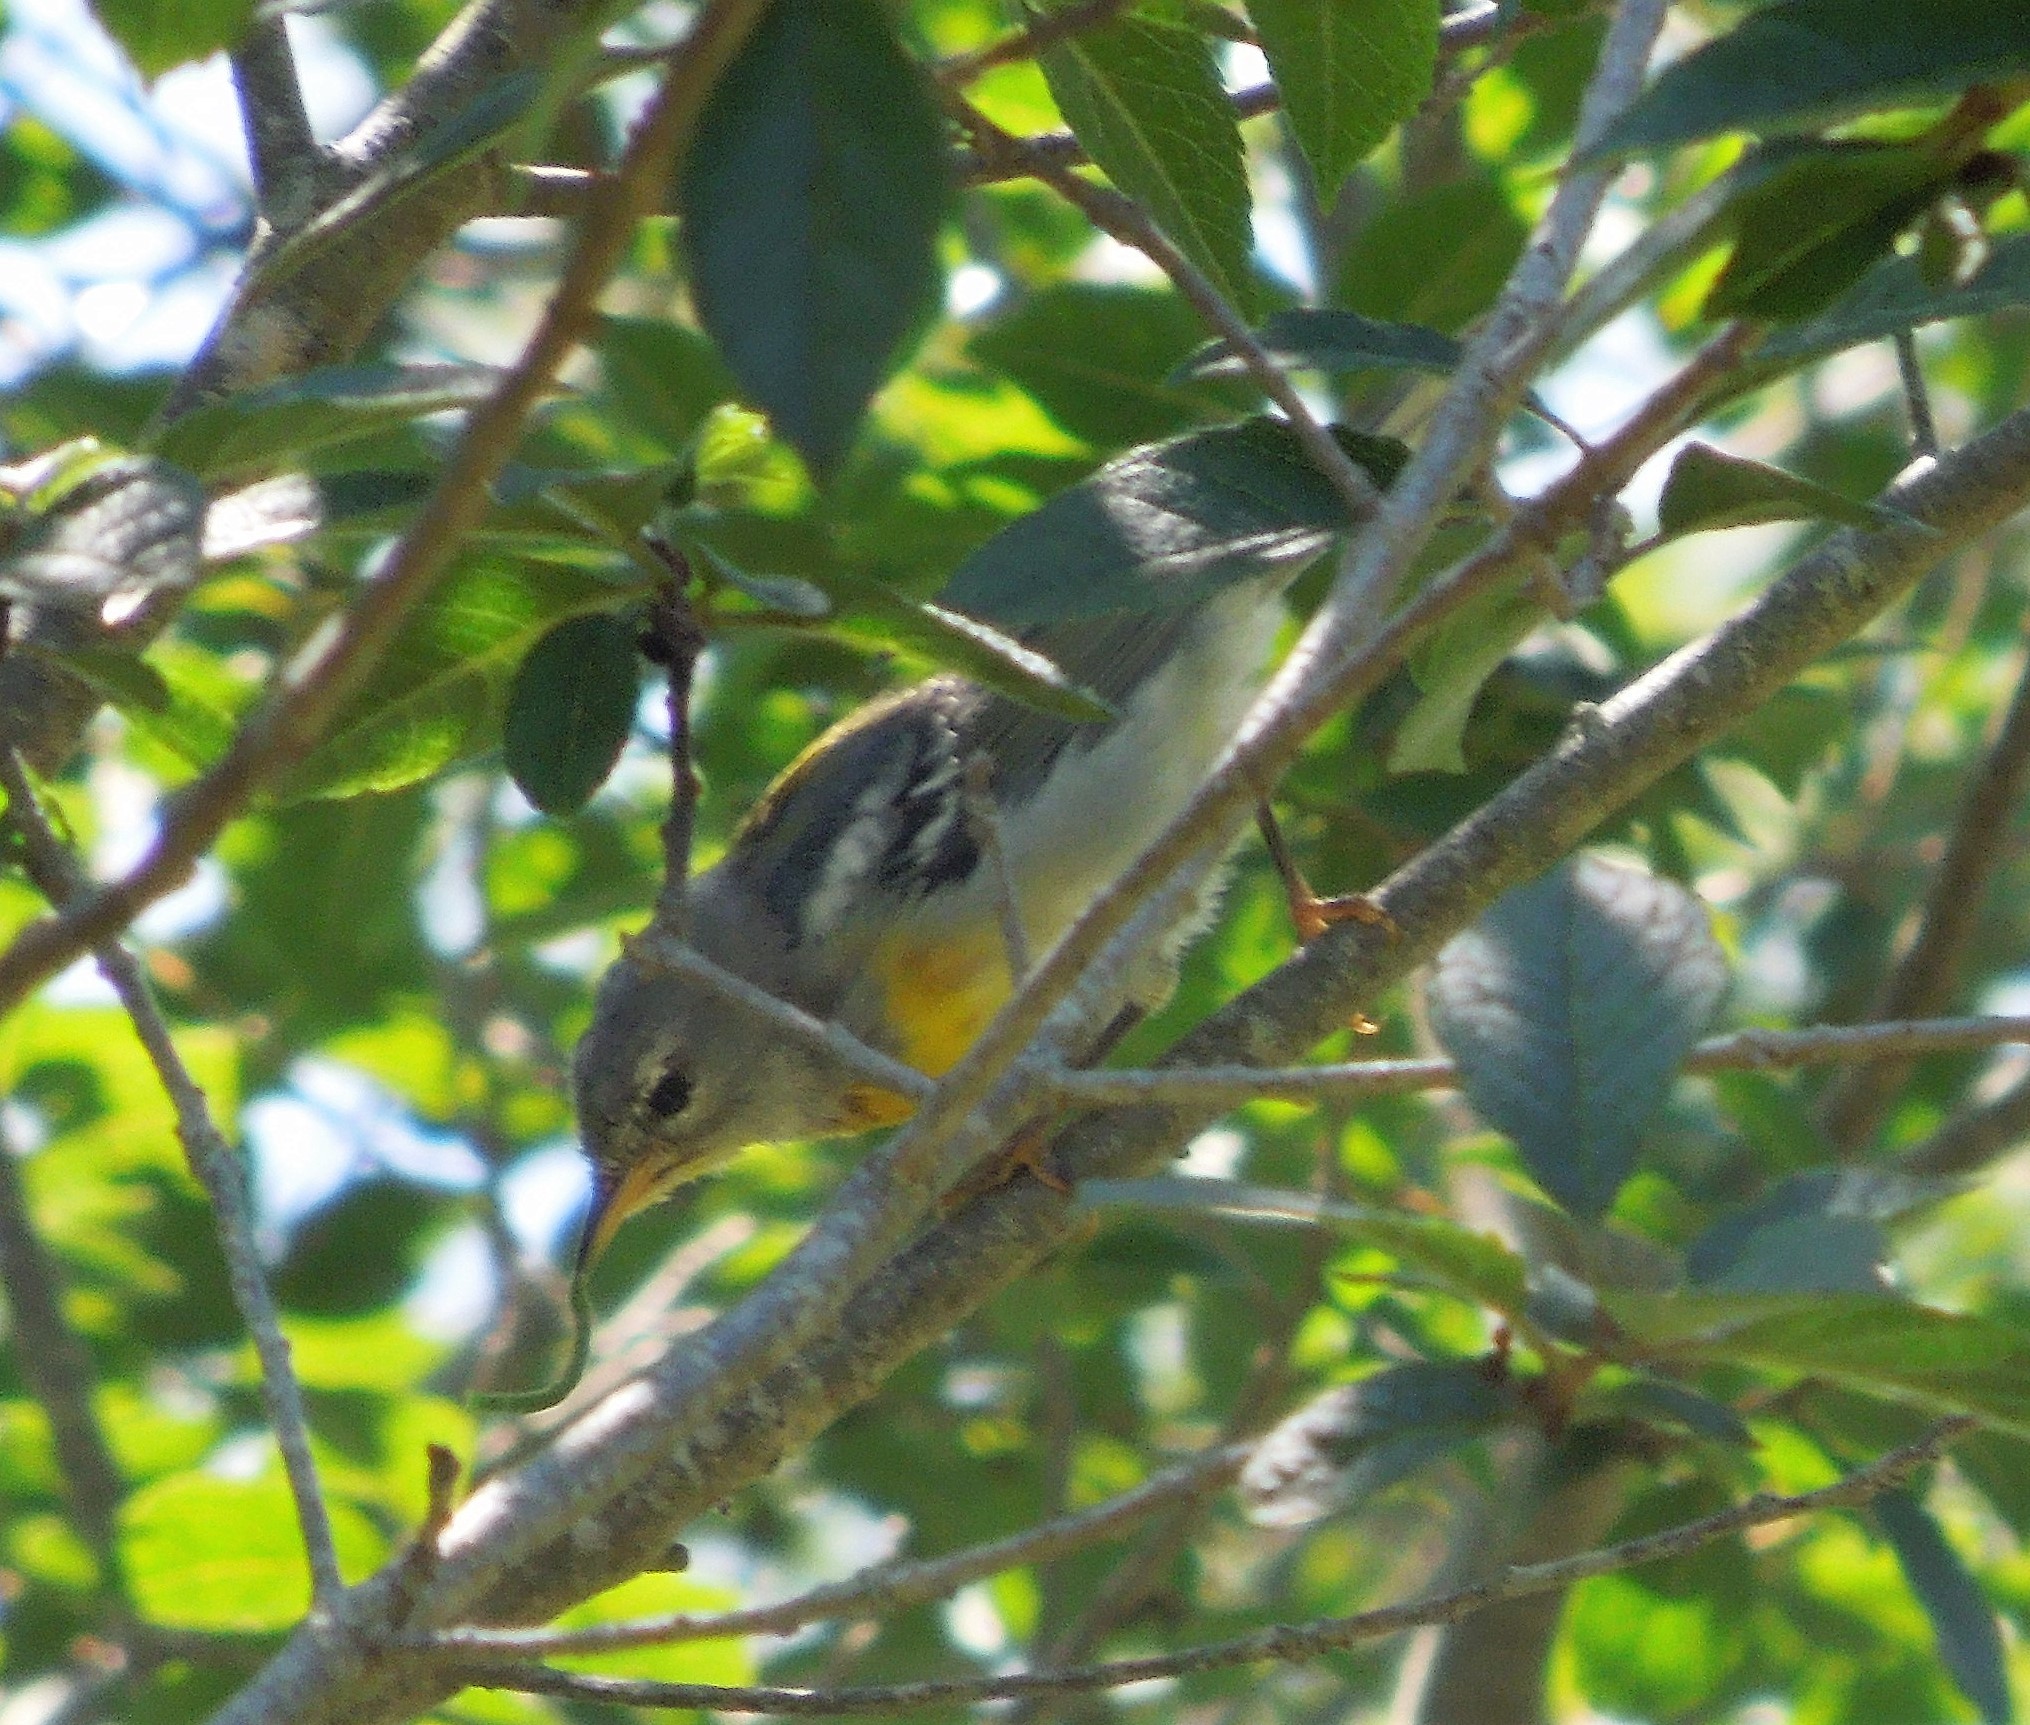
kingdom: Animalia
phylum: Chordata
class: Aves
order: Passeriformes
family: Parulidae
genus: Setophaga
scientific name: Setophaga americana
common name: Northern parula
